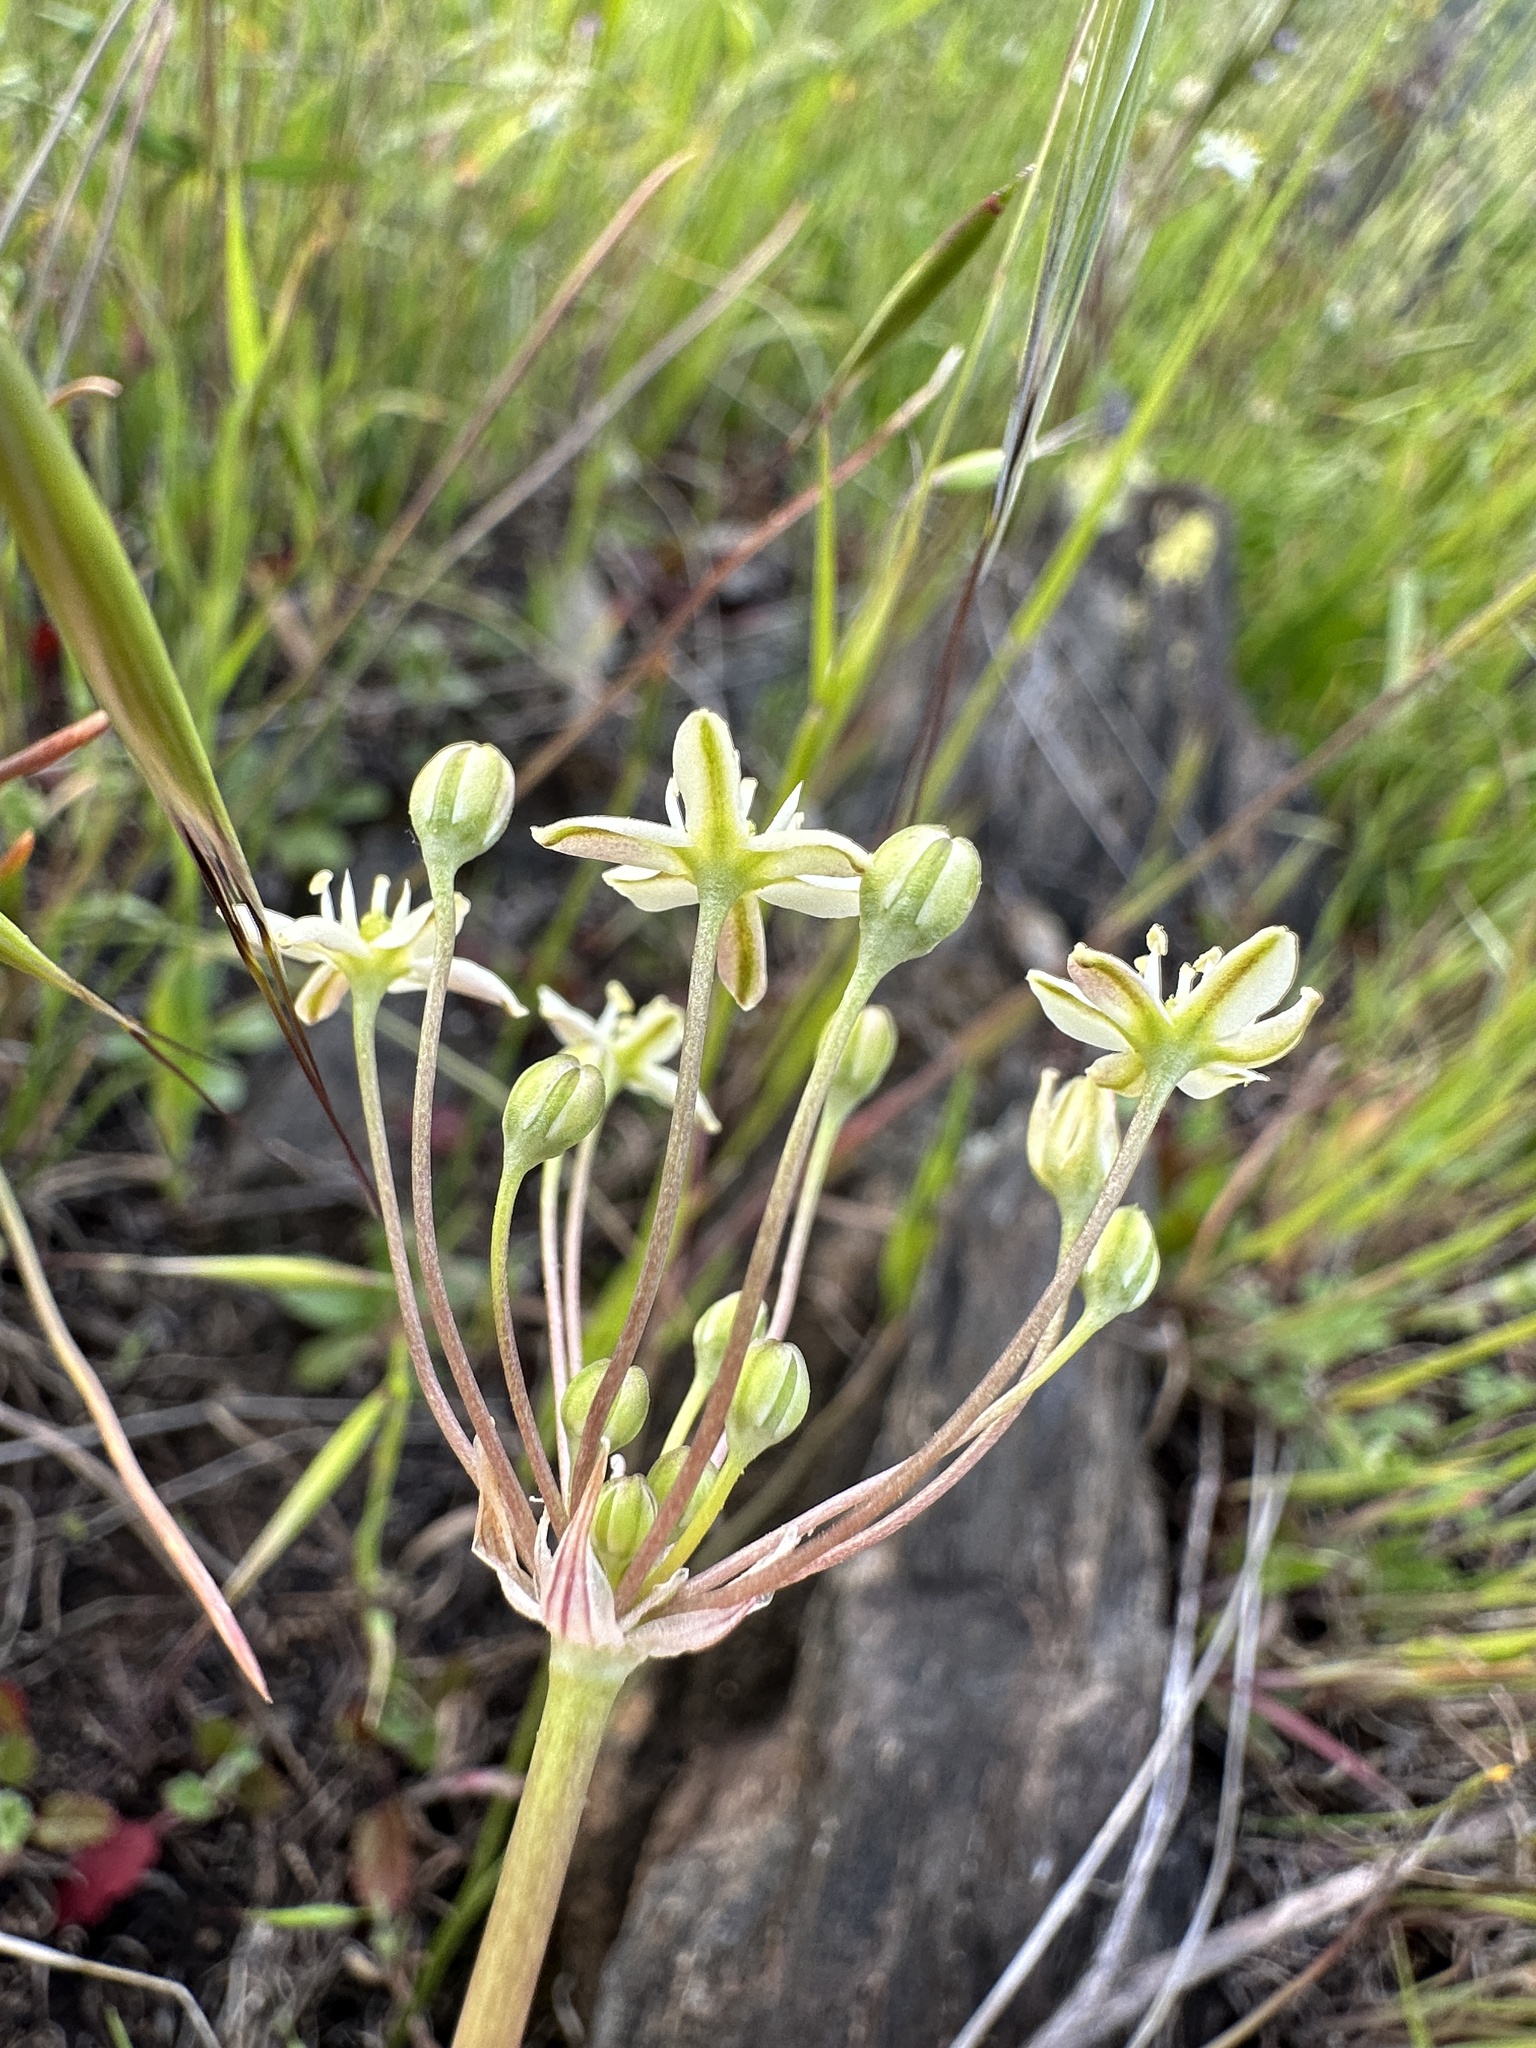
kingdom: Plantae
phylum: Tracheophyta
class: Liliopsida
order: Asparagales
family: Asparagaceae
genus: Muilla
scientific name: Muilla maritima
